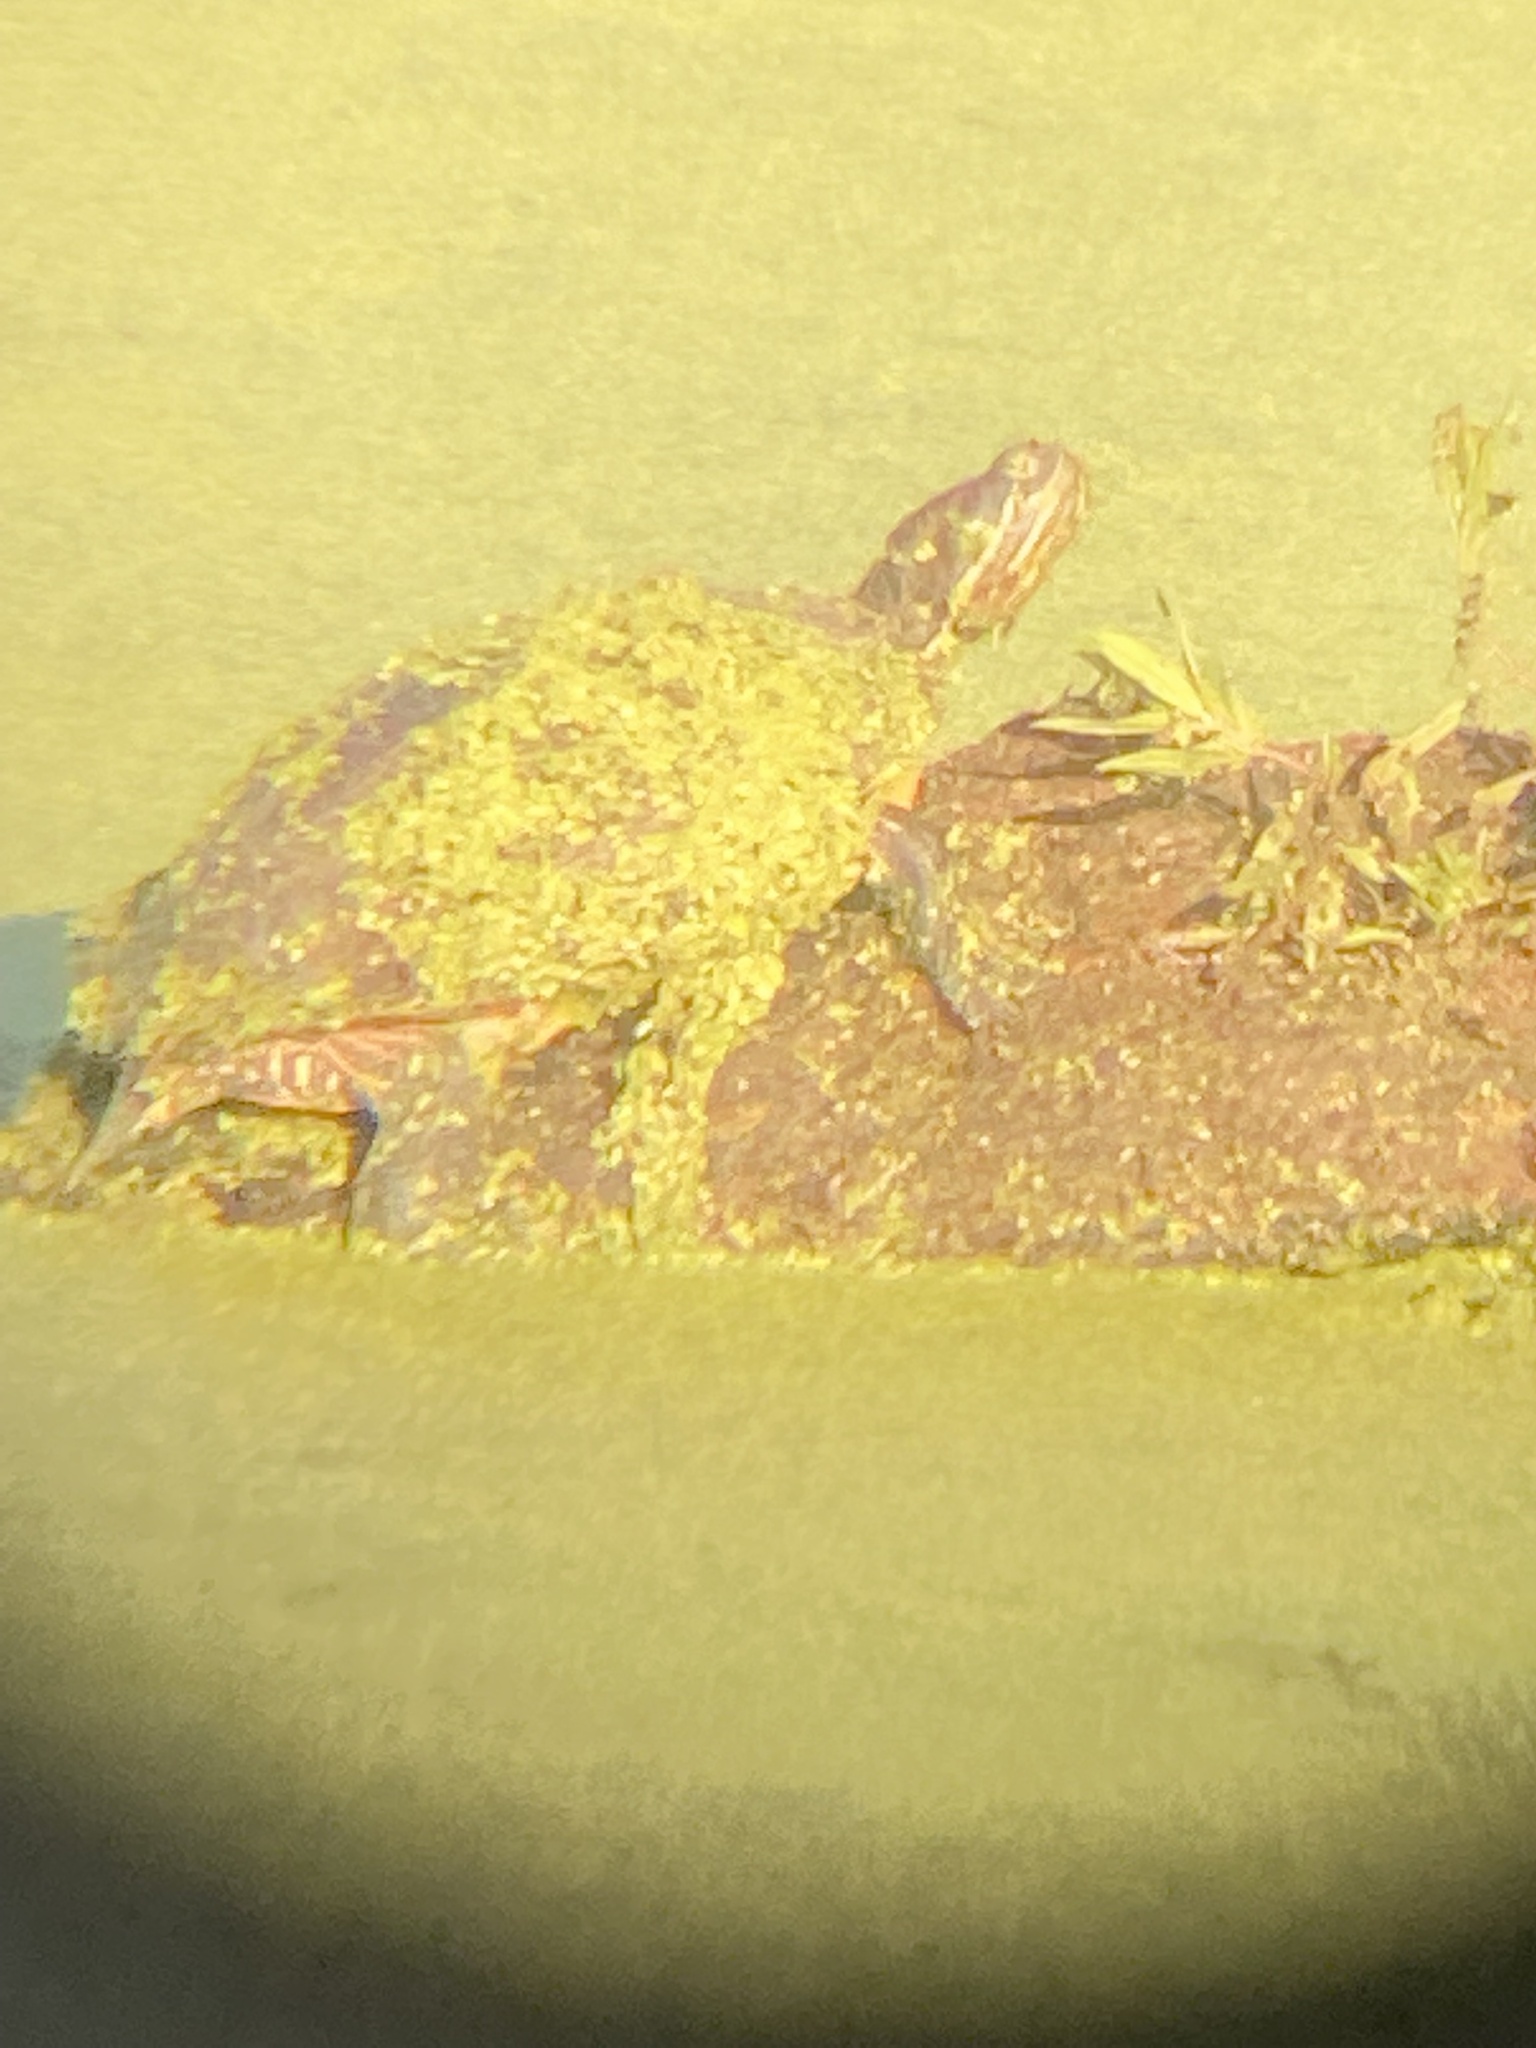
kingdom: Animalia
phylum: Chordata
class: Testudines
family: Emydidae
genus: Trachemys
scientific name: Trachemys scripta
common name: Slider
